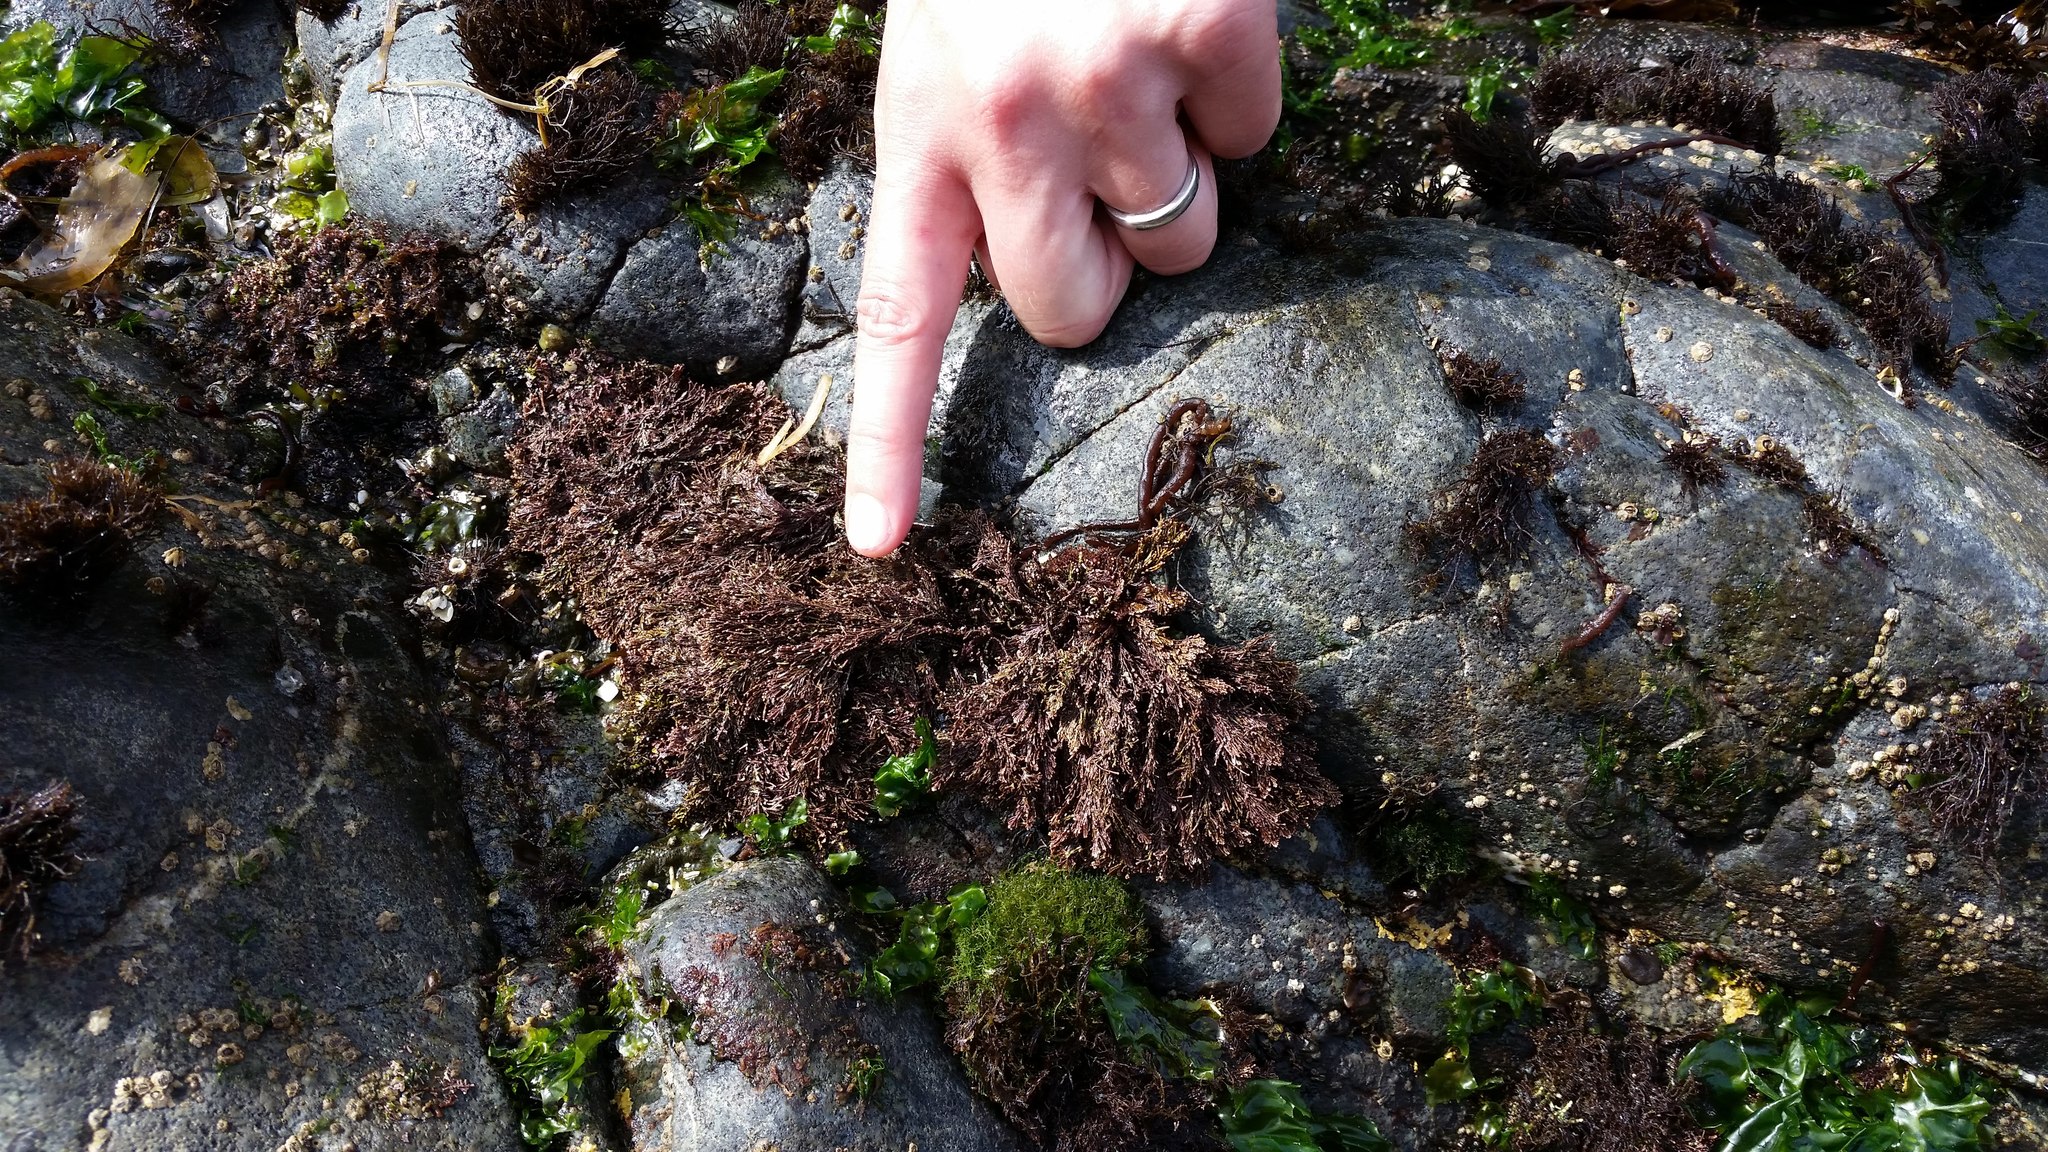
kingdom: Plantae
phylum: Rhodophyta
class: Florideophyceae
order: Corallinales
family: Corallinaceae
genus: Corallina
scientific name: Corallina vancouveriensis
